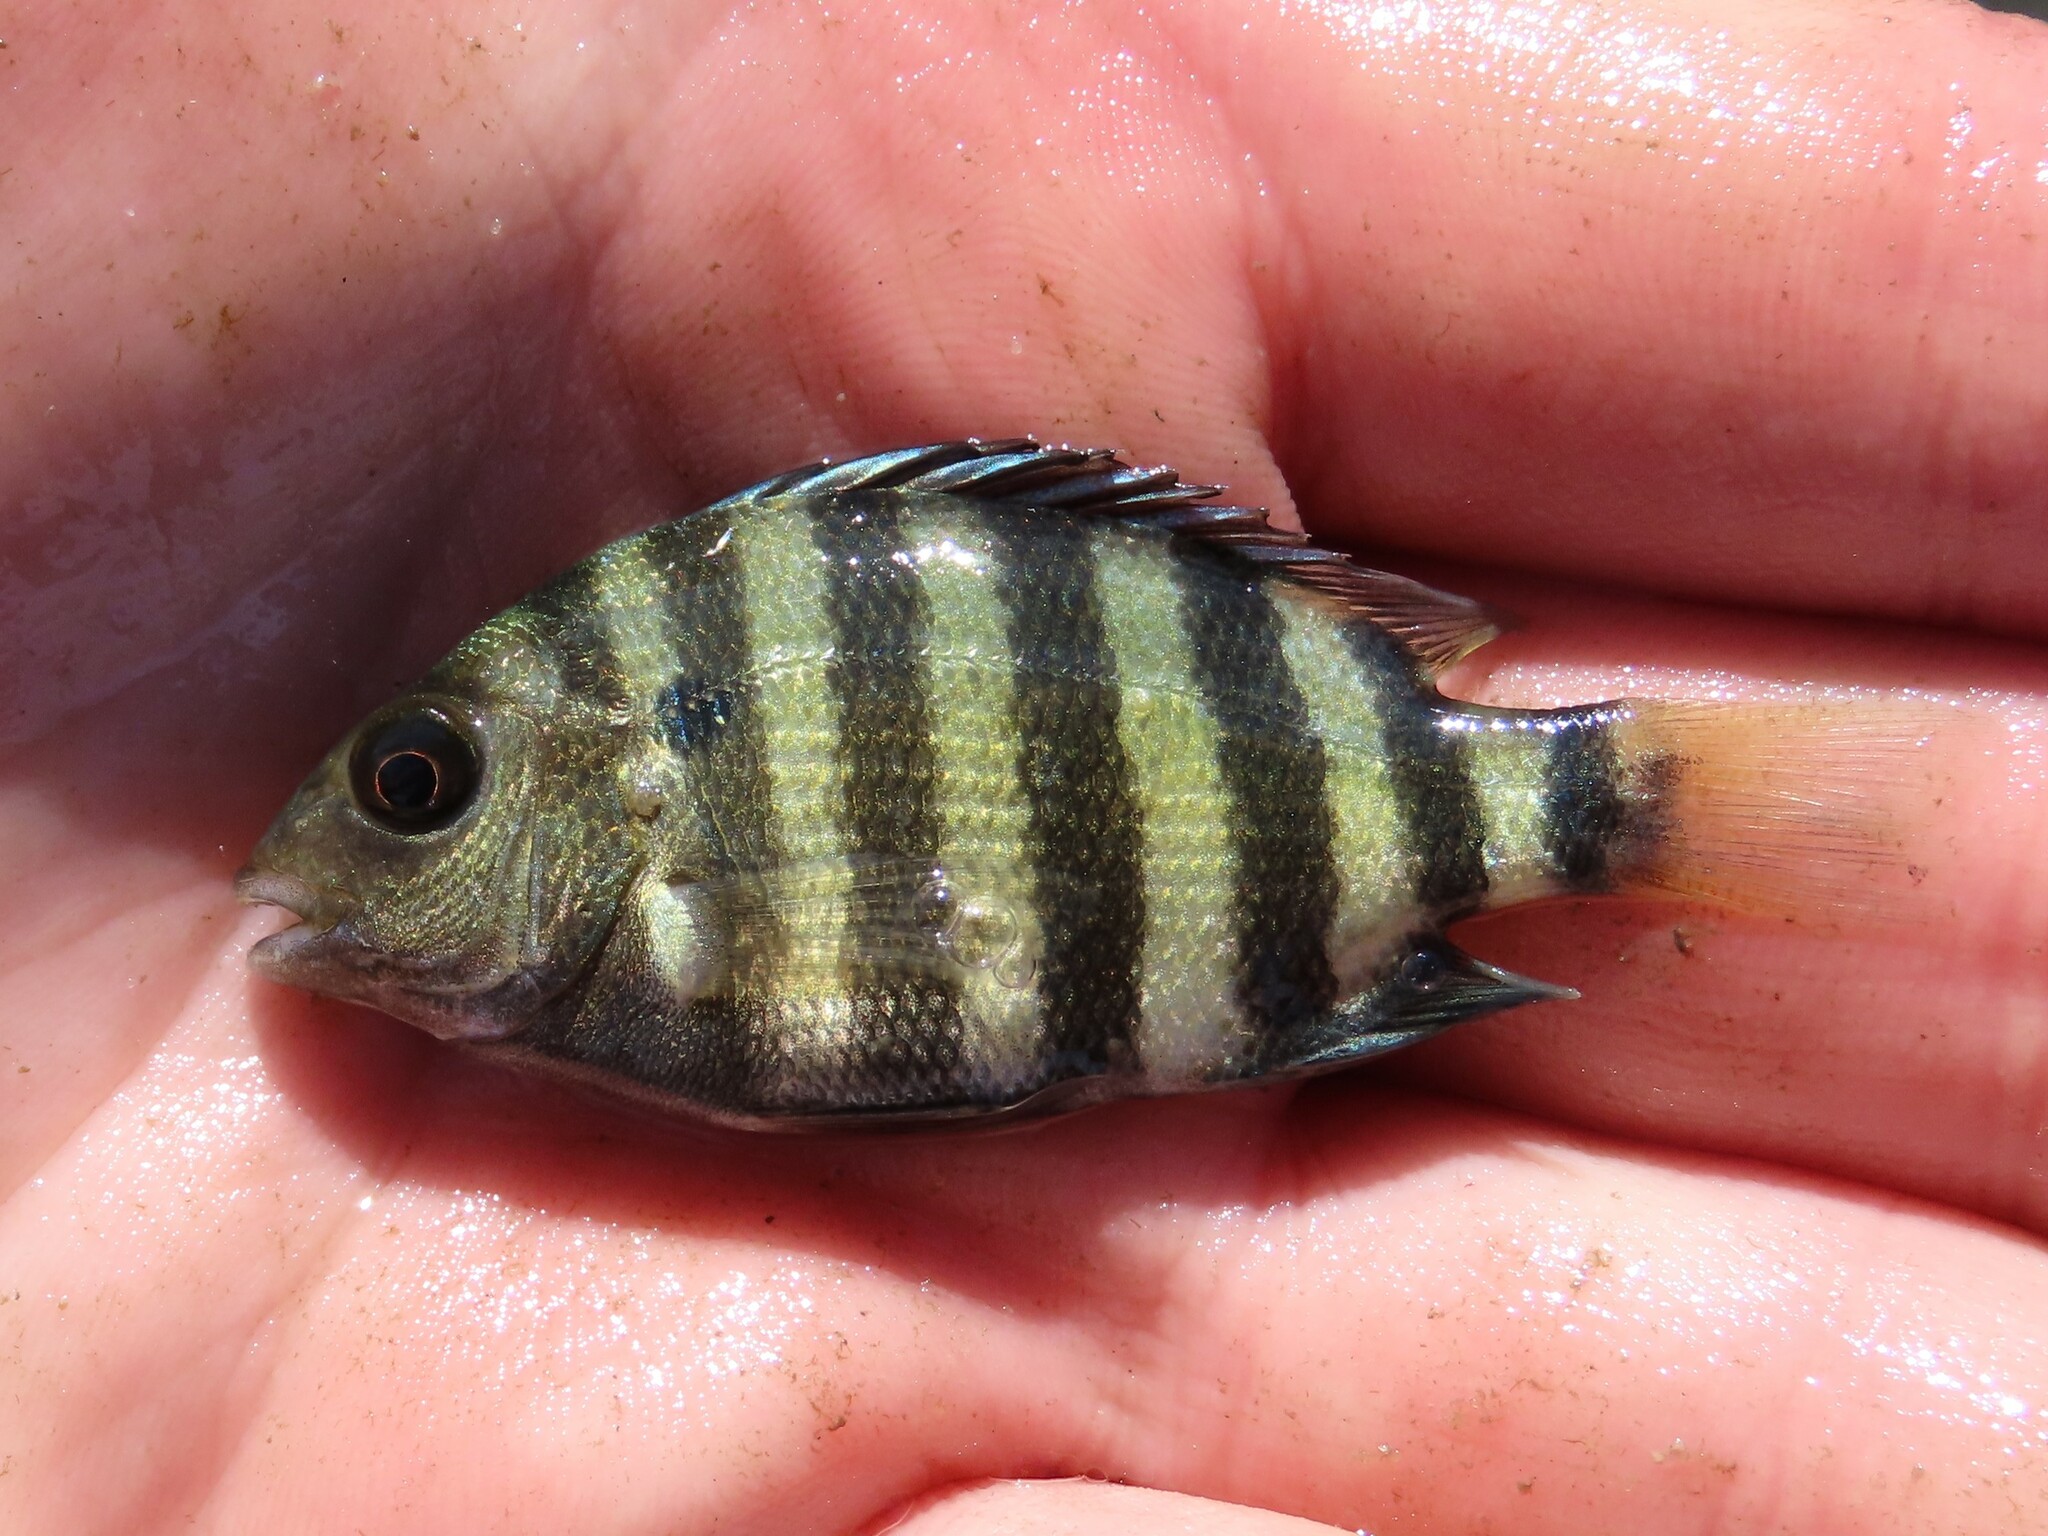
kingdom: Animalia
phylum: Chordata
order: Perciformes
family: Sparidae
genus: Archosargus
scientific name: Archosargus probatocephalus
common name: Sheepshead
